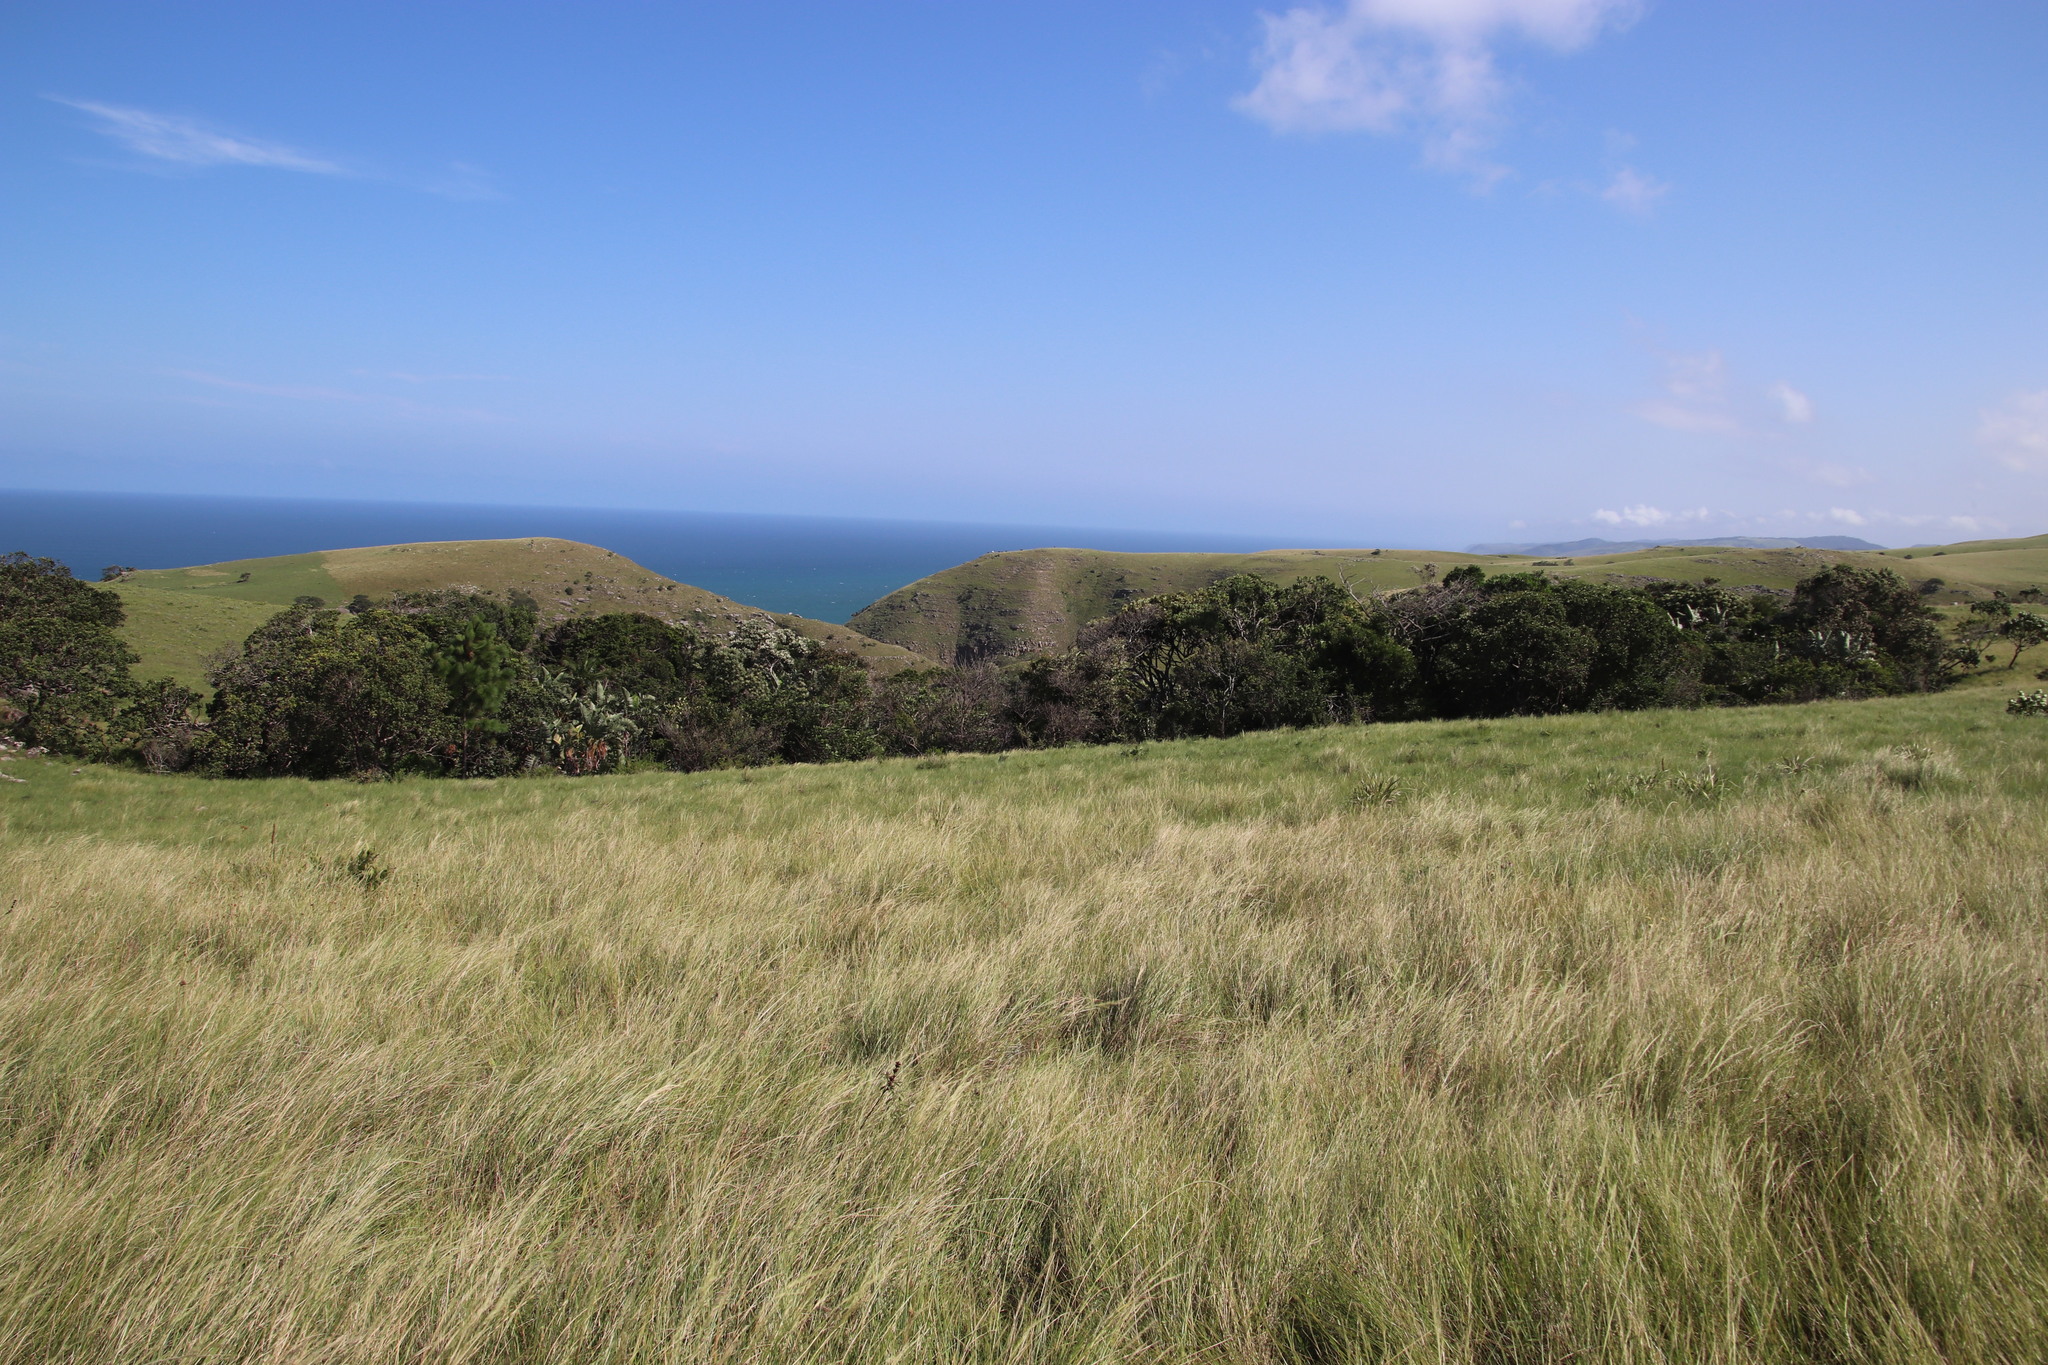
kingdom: Plantae
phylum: Tracheophyta
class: Liliopsida
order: Zingiberales
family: Strelitziaceae
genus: Strelitzia
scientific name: Strelitzia nicolai
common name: Bird-of-paradise tree
